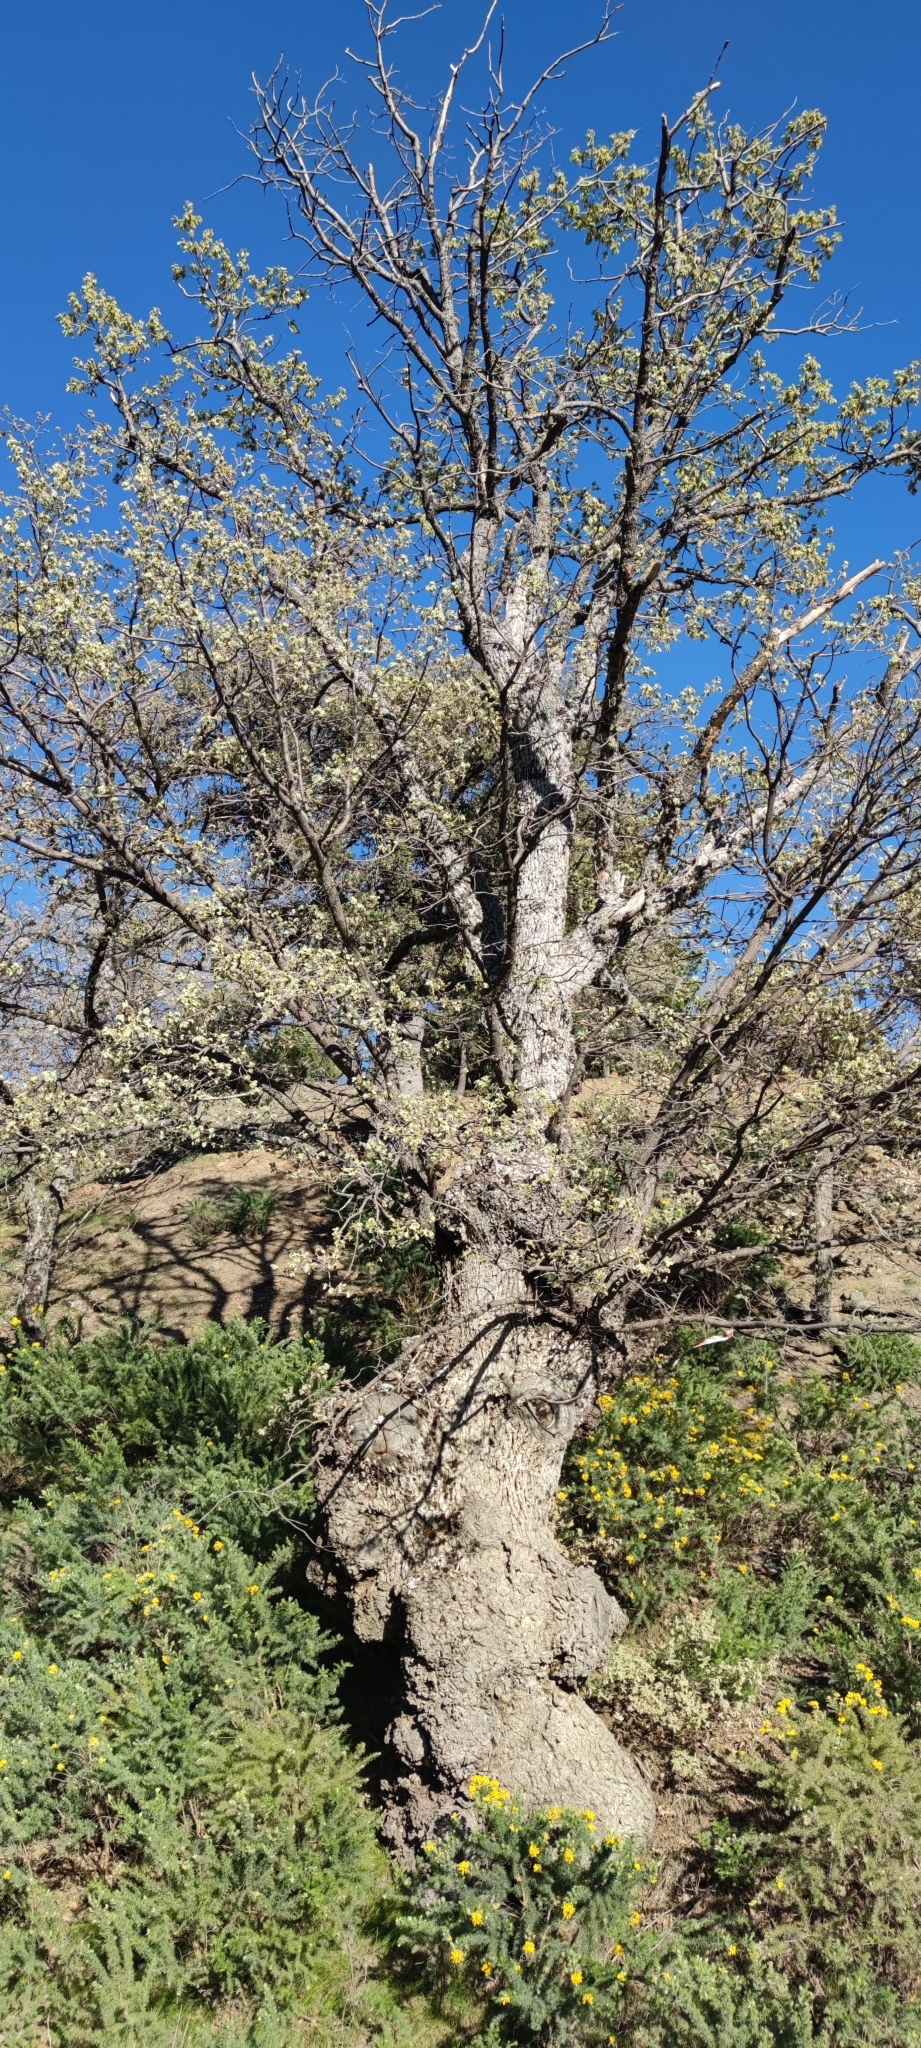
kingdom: Plantae
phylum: Tracheophyta
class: Magnoliopsida
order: Fagales
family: Fagaceae
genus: Quercus
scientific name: Quercus pyrenaica
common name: Pyrenean oak
